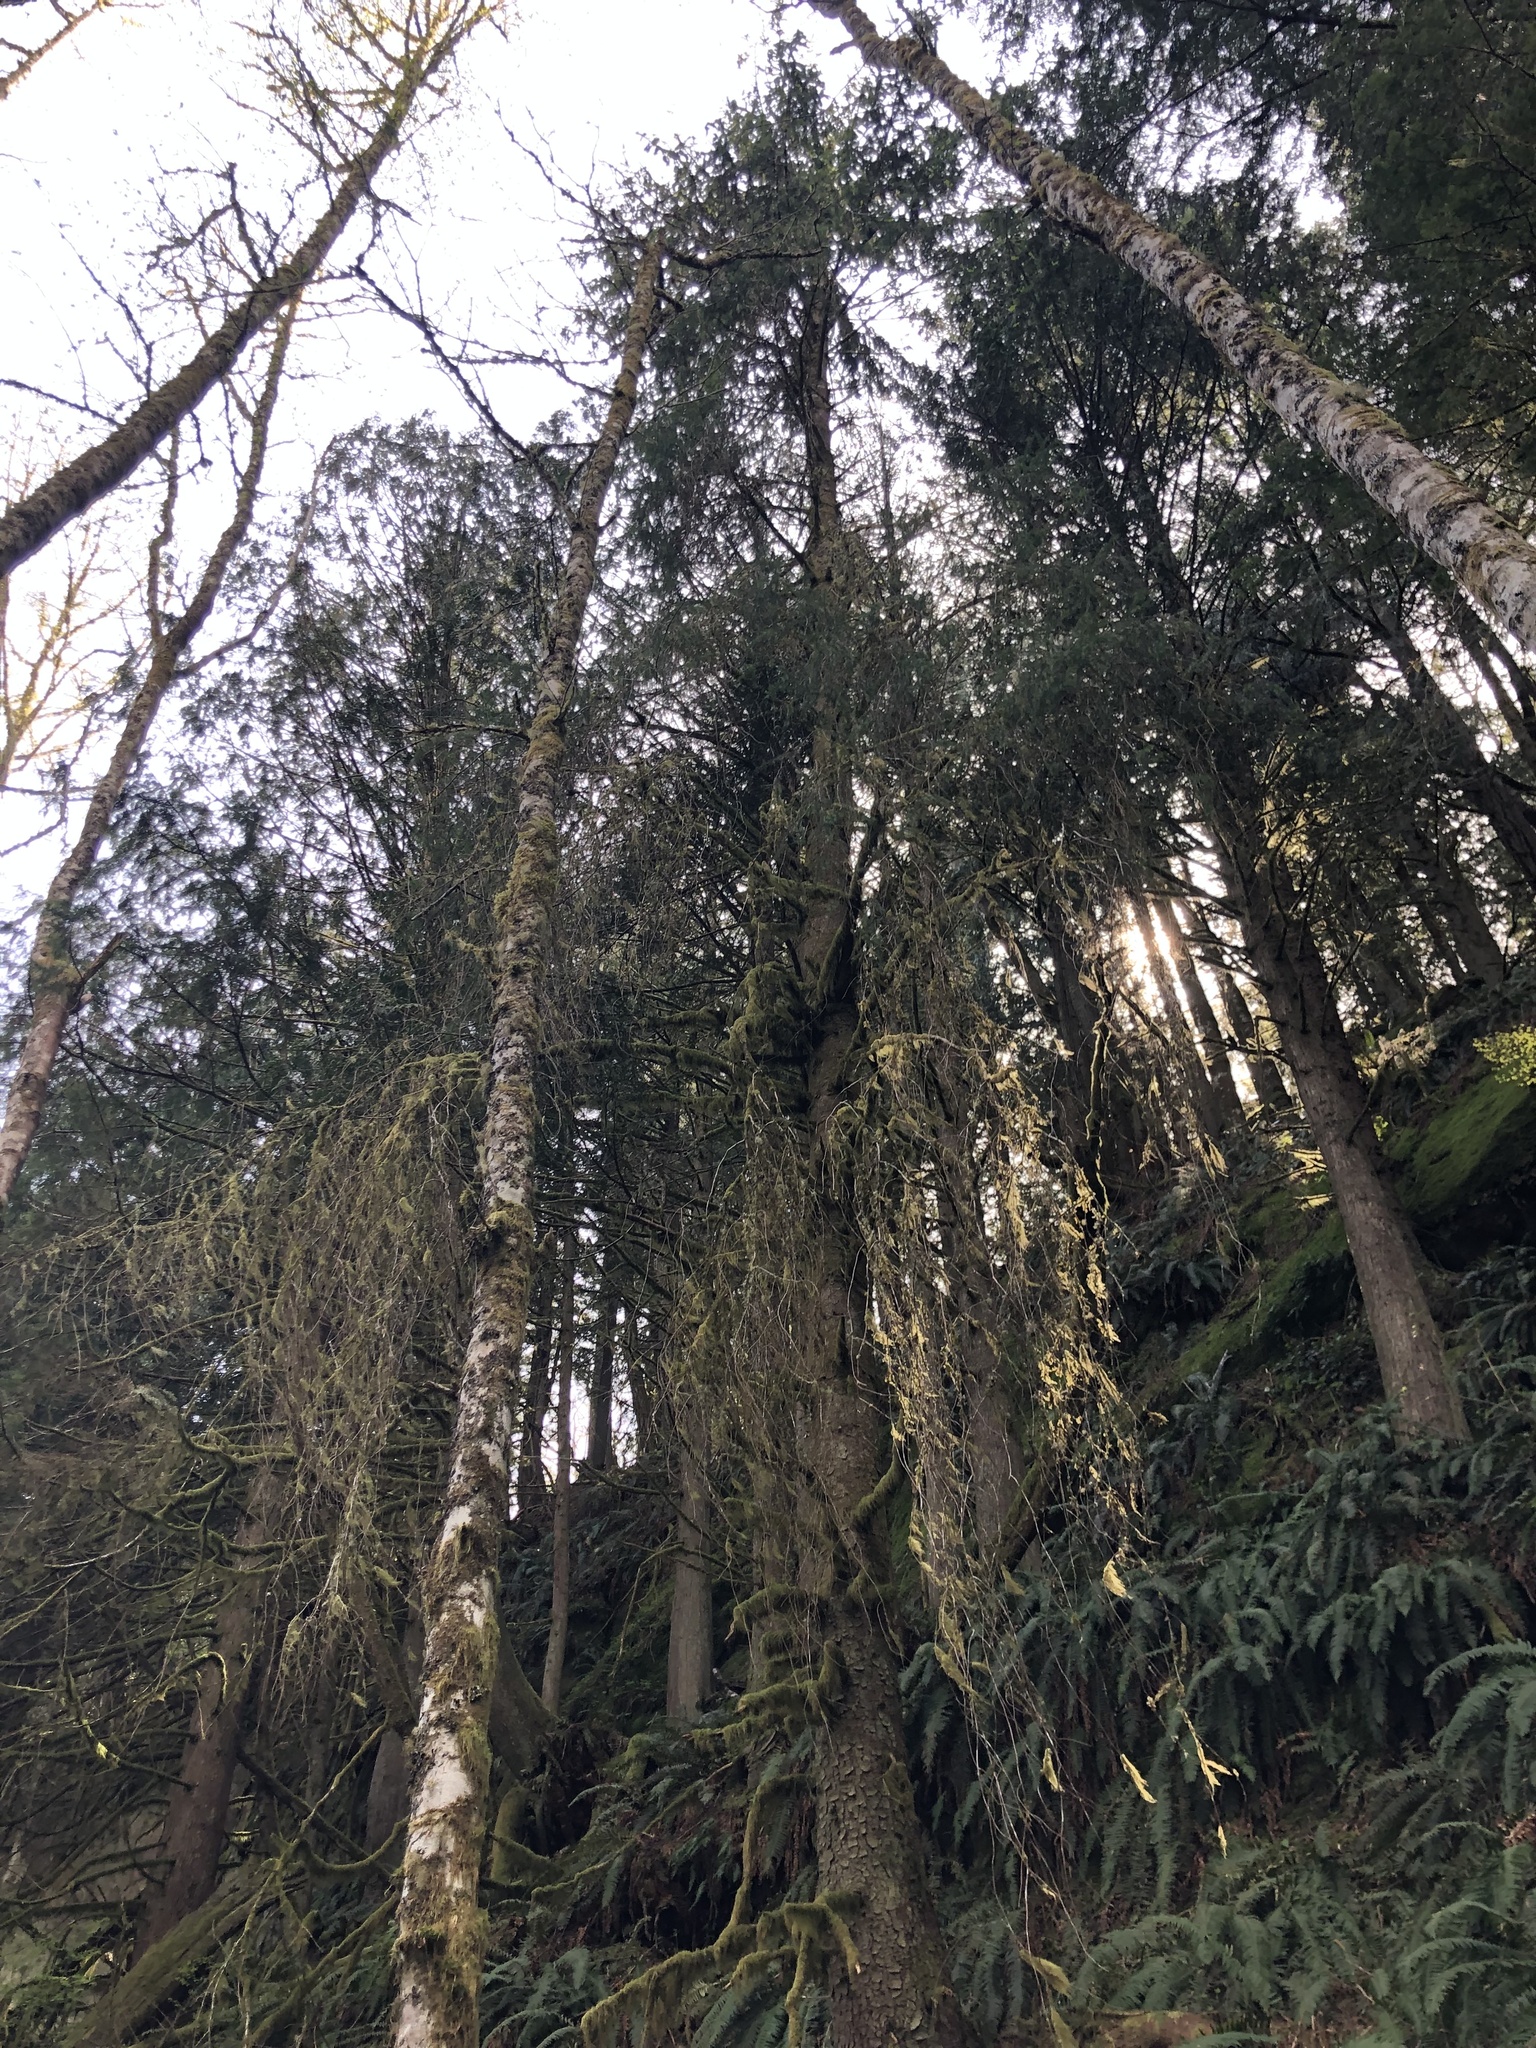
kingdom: Plantae
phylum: Tracheophyta
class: Pinopsida
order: Pinales
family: Pinaceae
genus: Picea
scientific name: Picea sitchensis
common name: Sitka spruce
